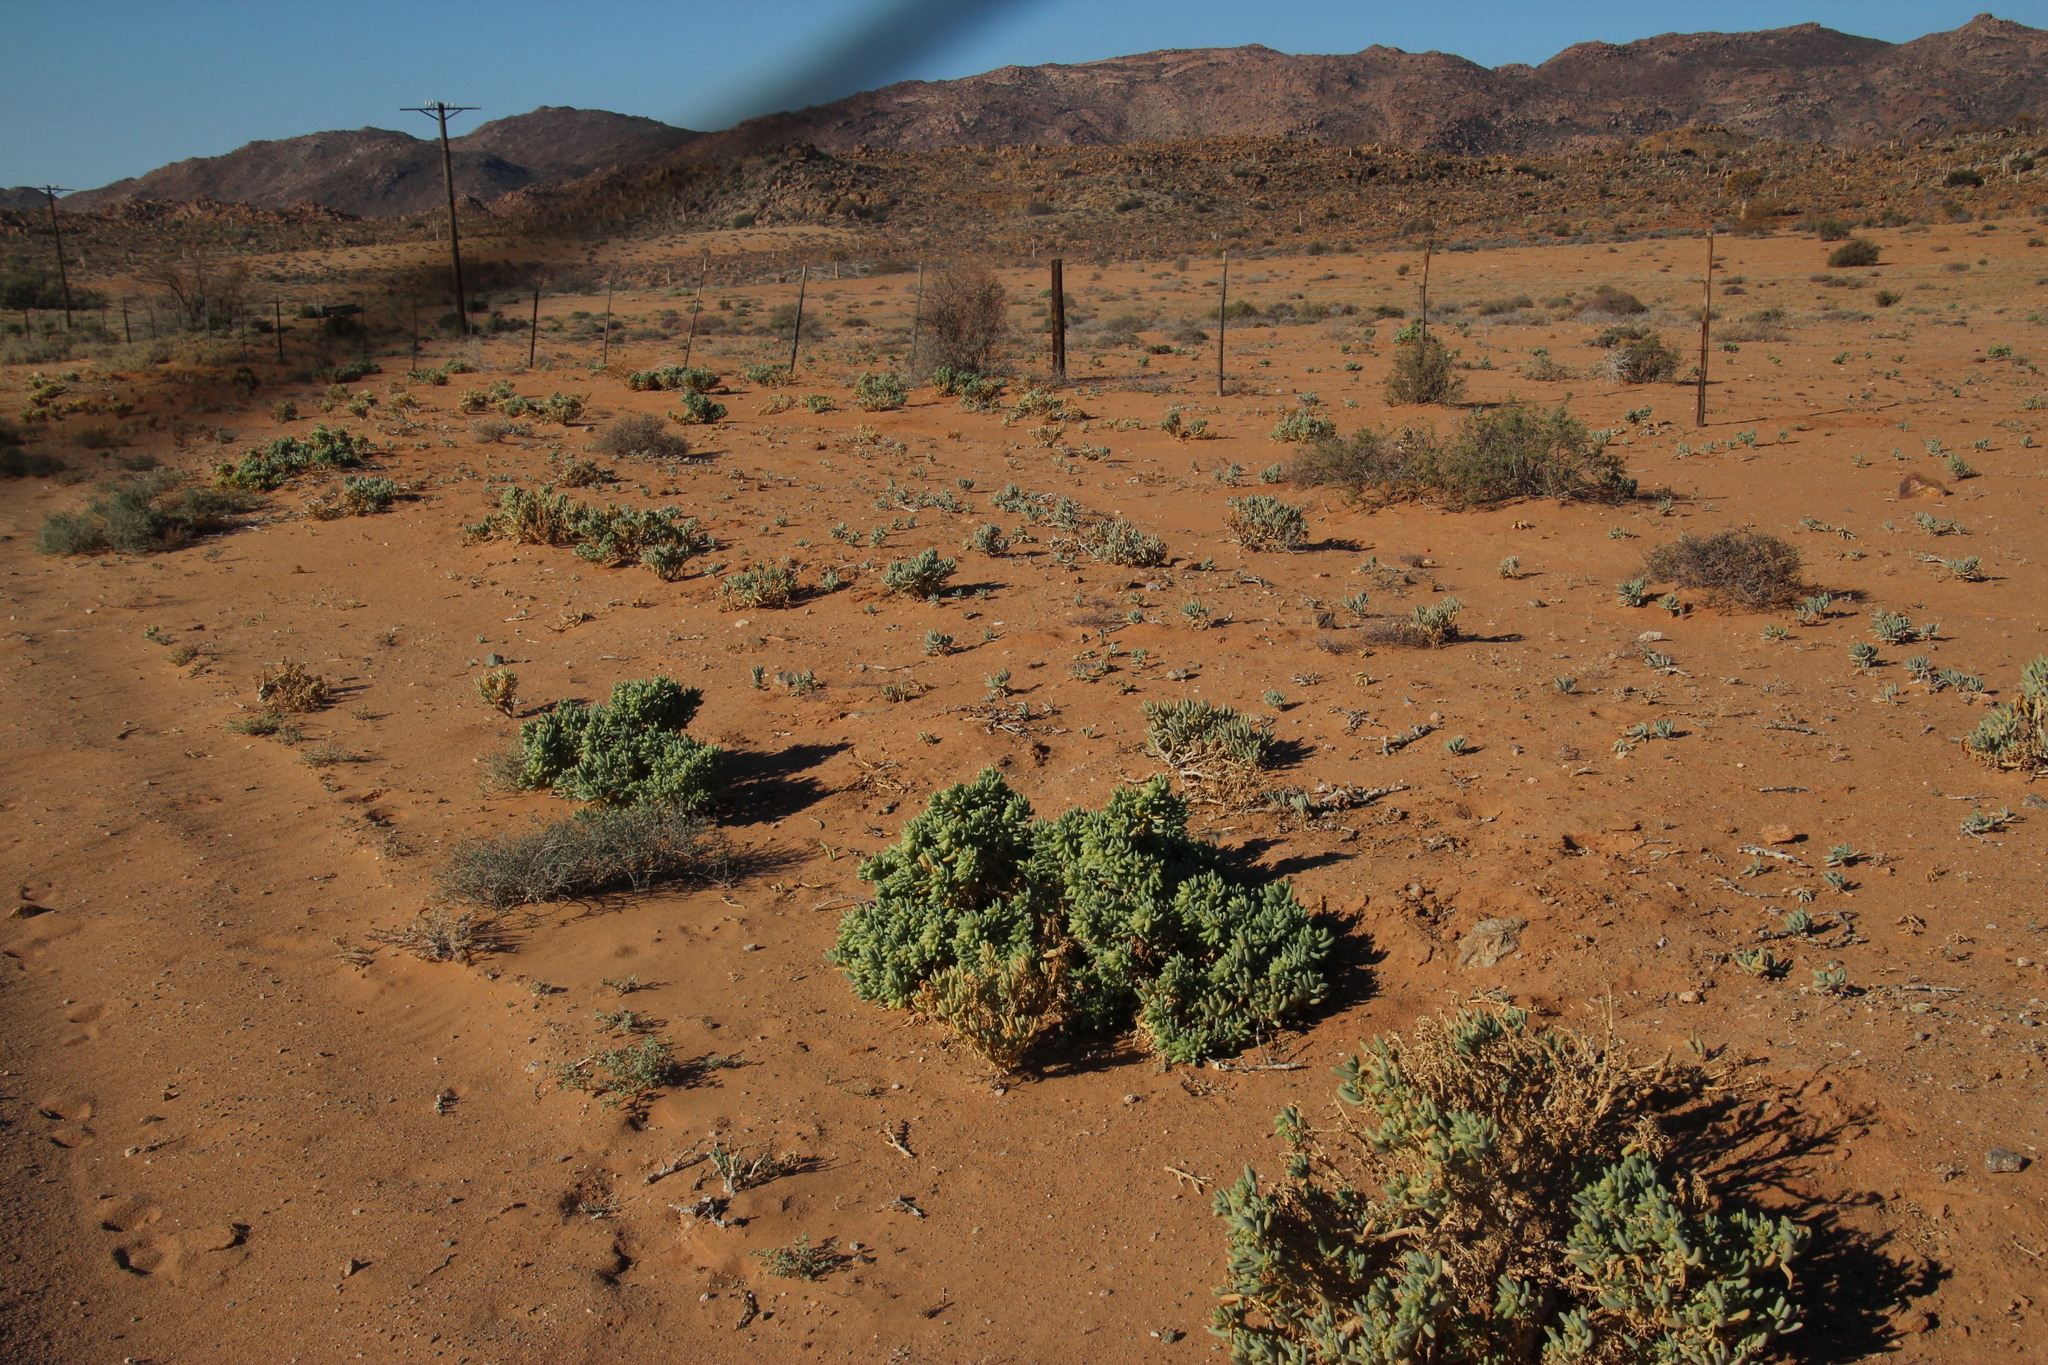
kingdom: Plantae
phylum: Tracheophyta
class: Magnoliopsida
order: Zygophyllales
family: Zygophyllaceae
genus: Augea
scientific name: Augea capensis
